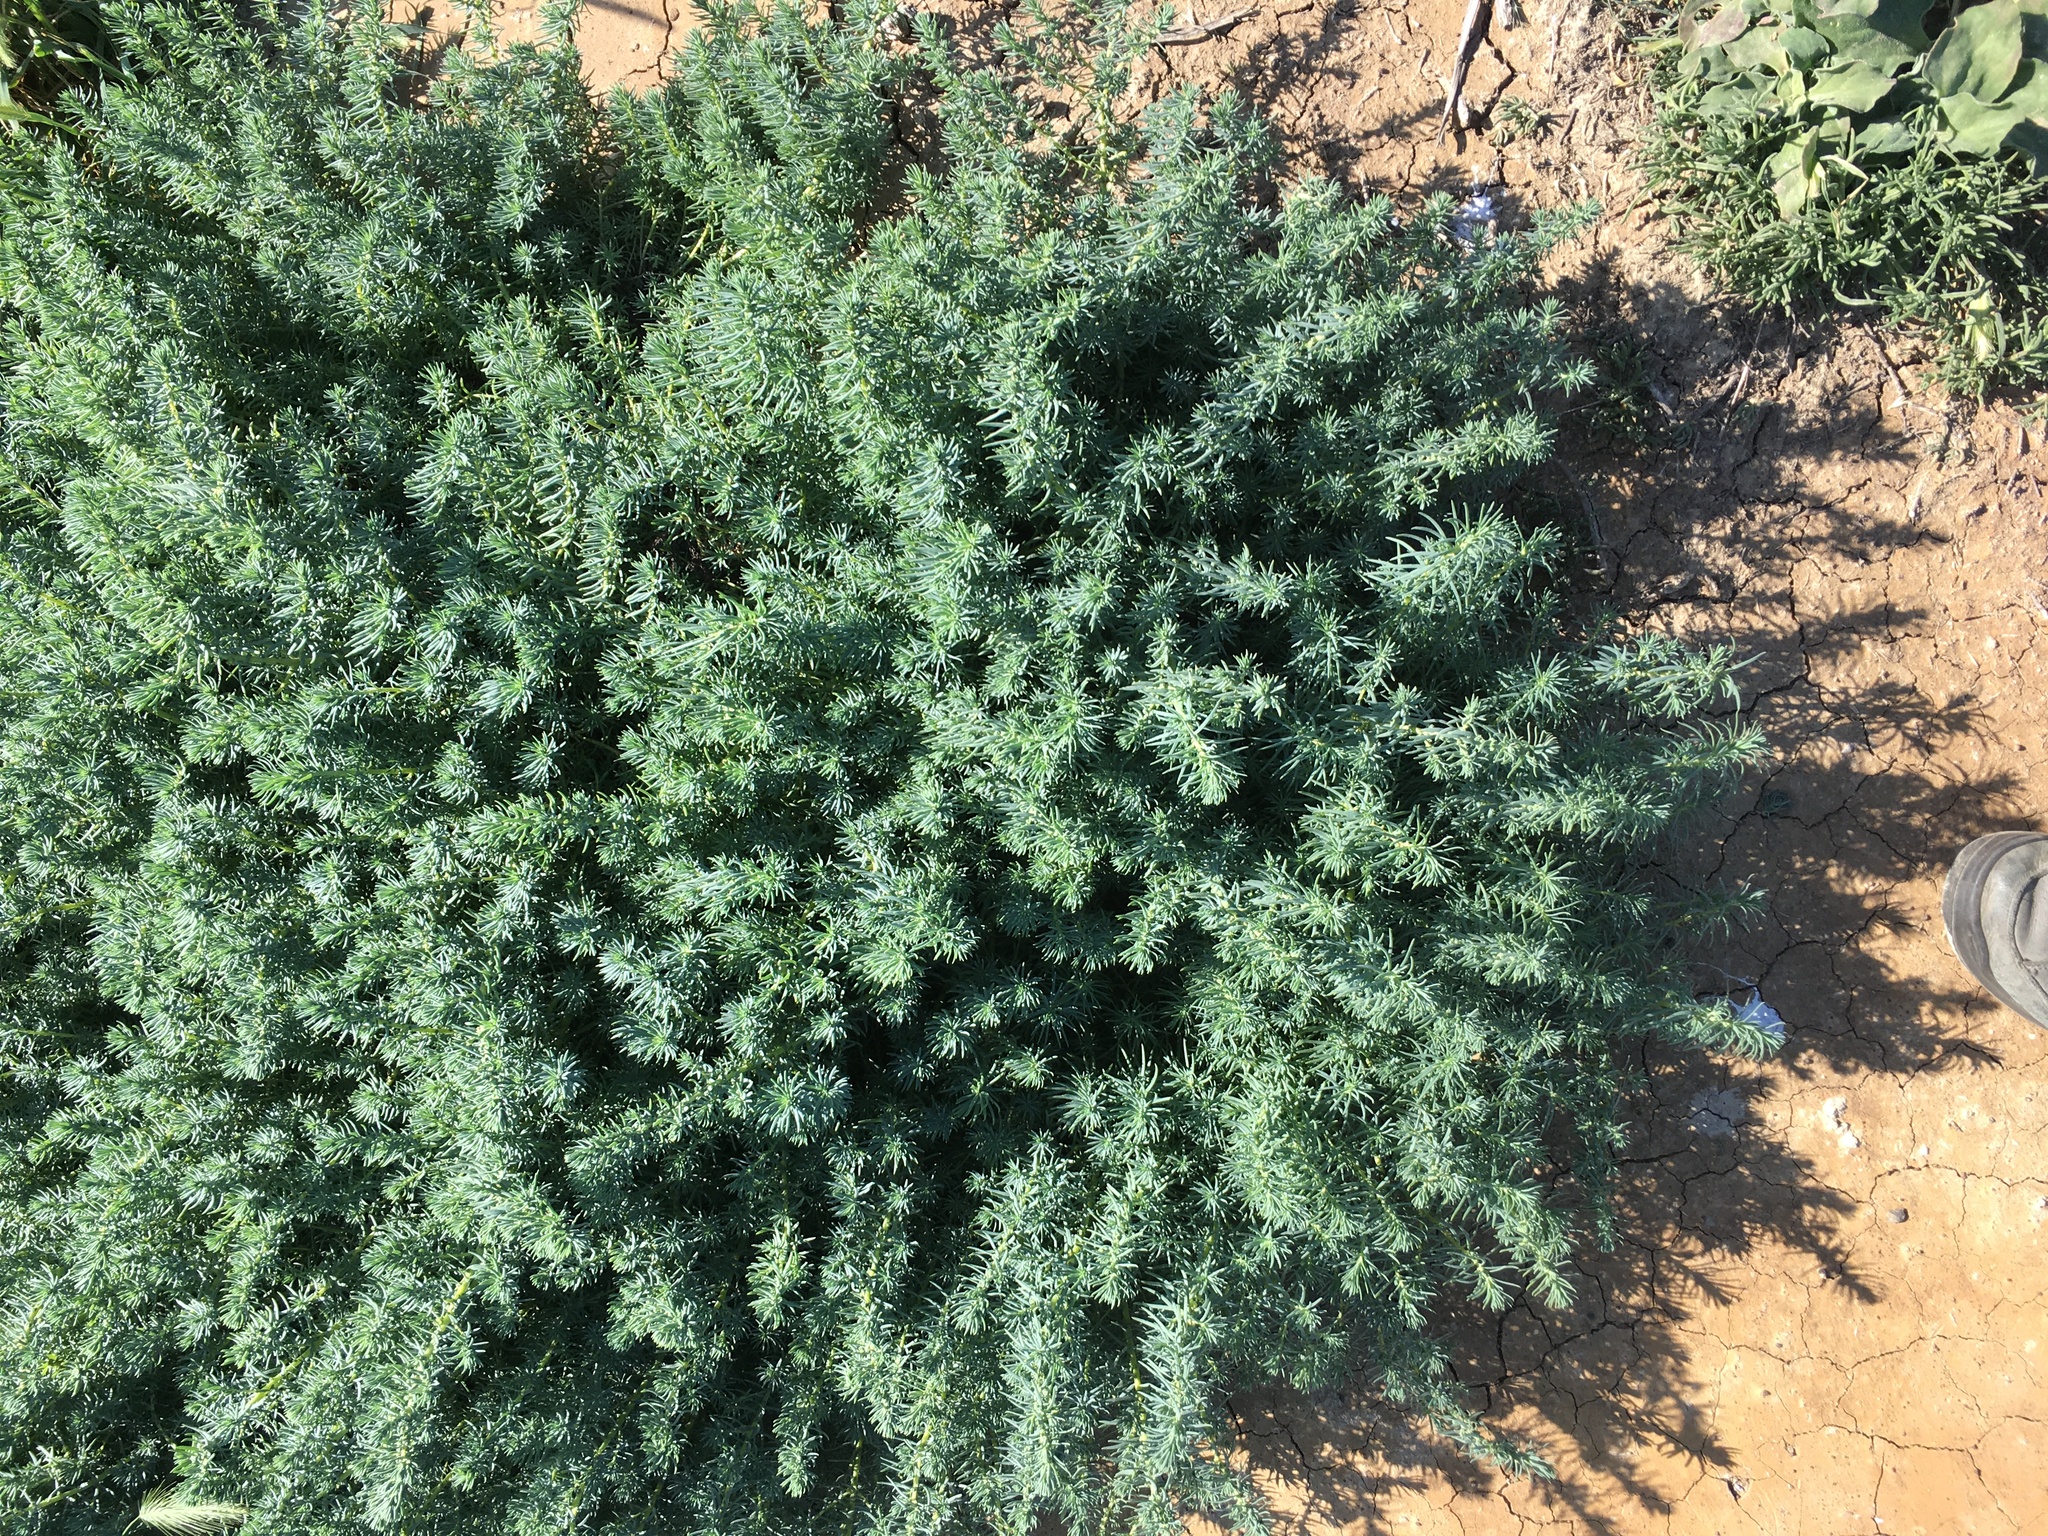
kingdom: Plantae
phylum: Tracheophyta
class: Magnoliopsida
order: Caryophyllales
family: Amaranthaceae
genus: Suaeda
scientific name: Suaeda taxifolia
